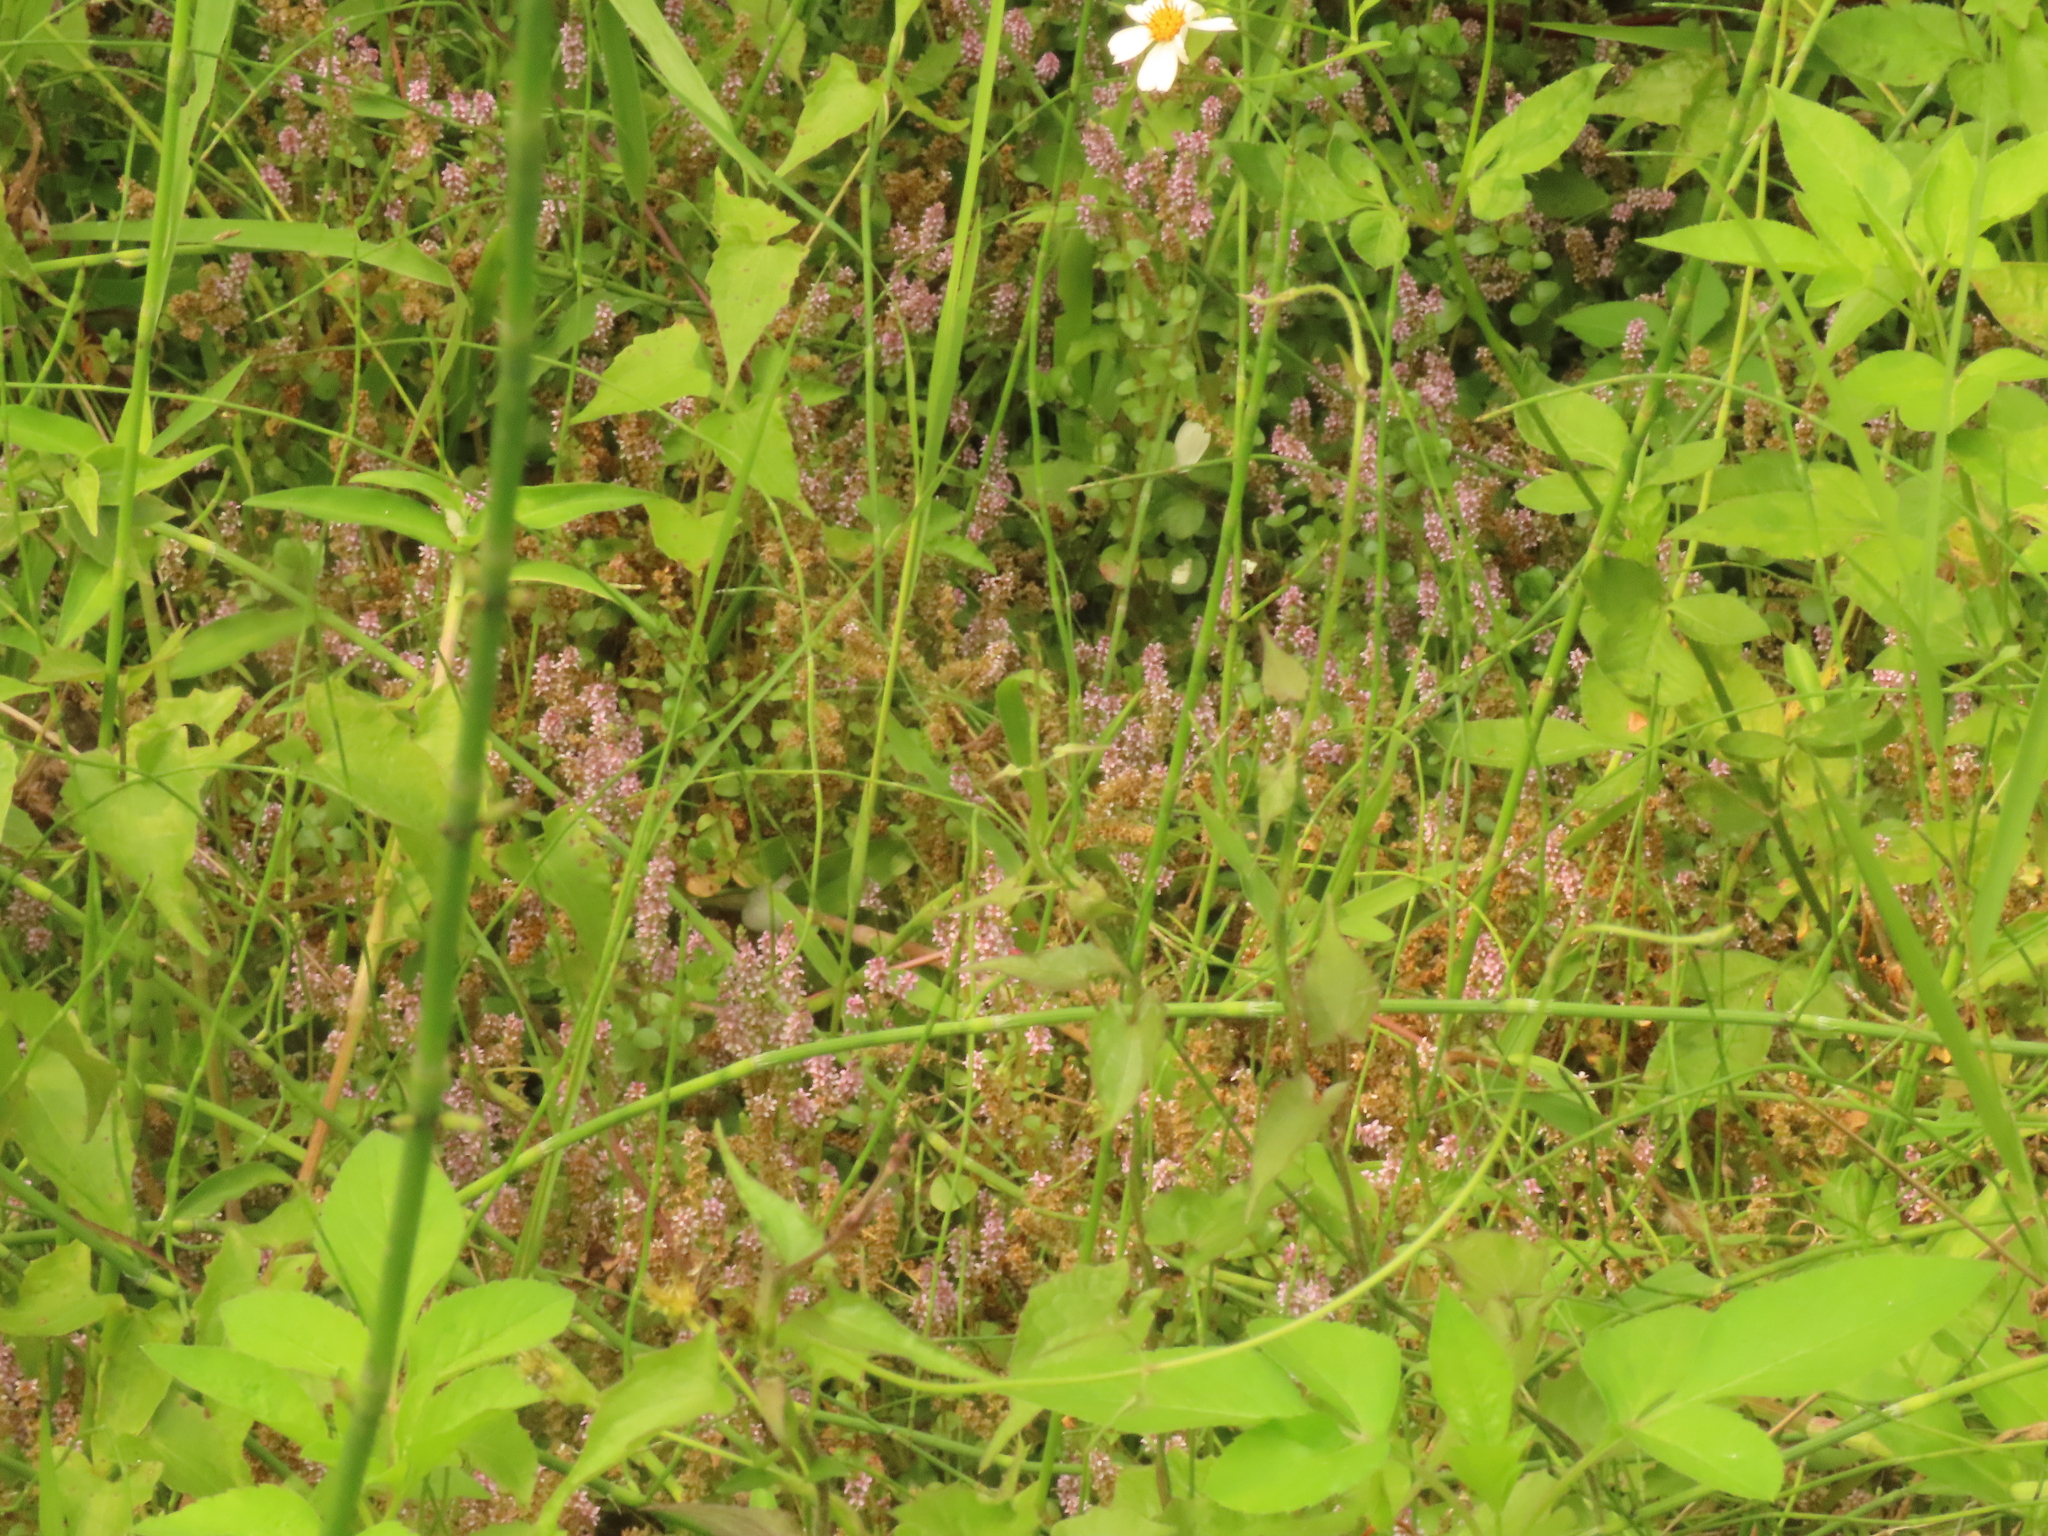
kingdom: Plantae
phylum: Tracheophyta
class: Magnoliopsida
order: Myrtales
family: Lythraceae
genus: Rotala
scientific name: Rotala rotundifolia
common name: Roundleaf toothcup
